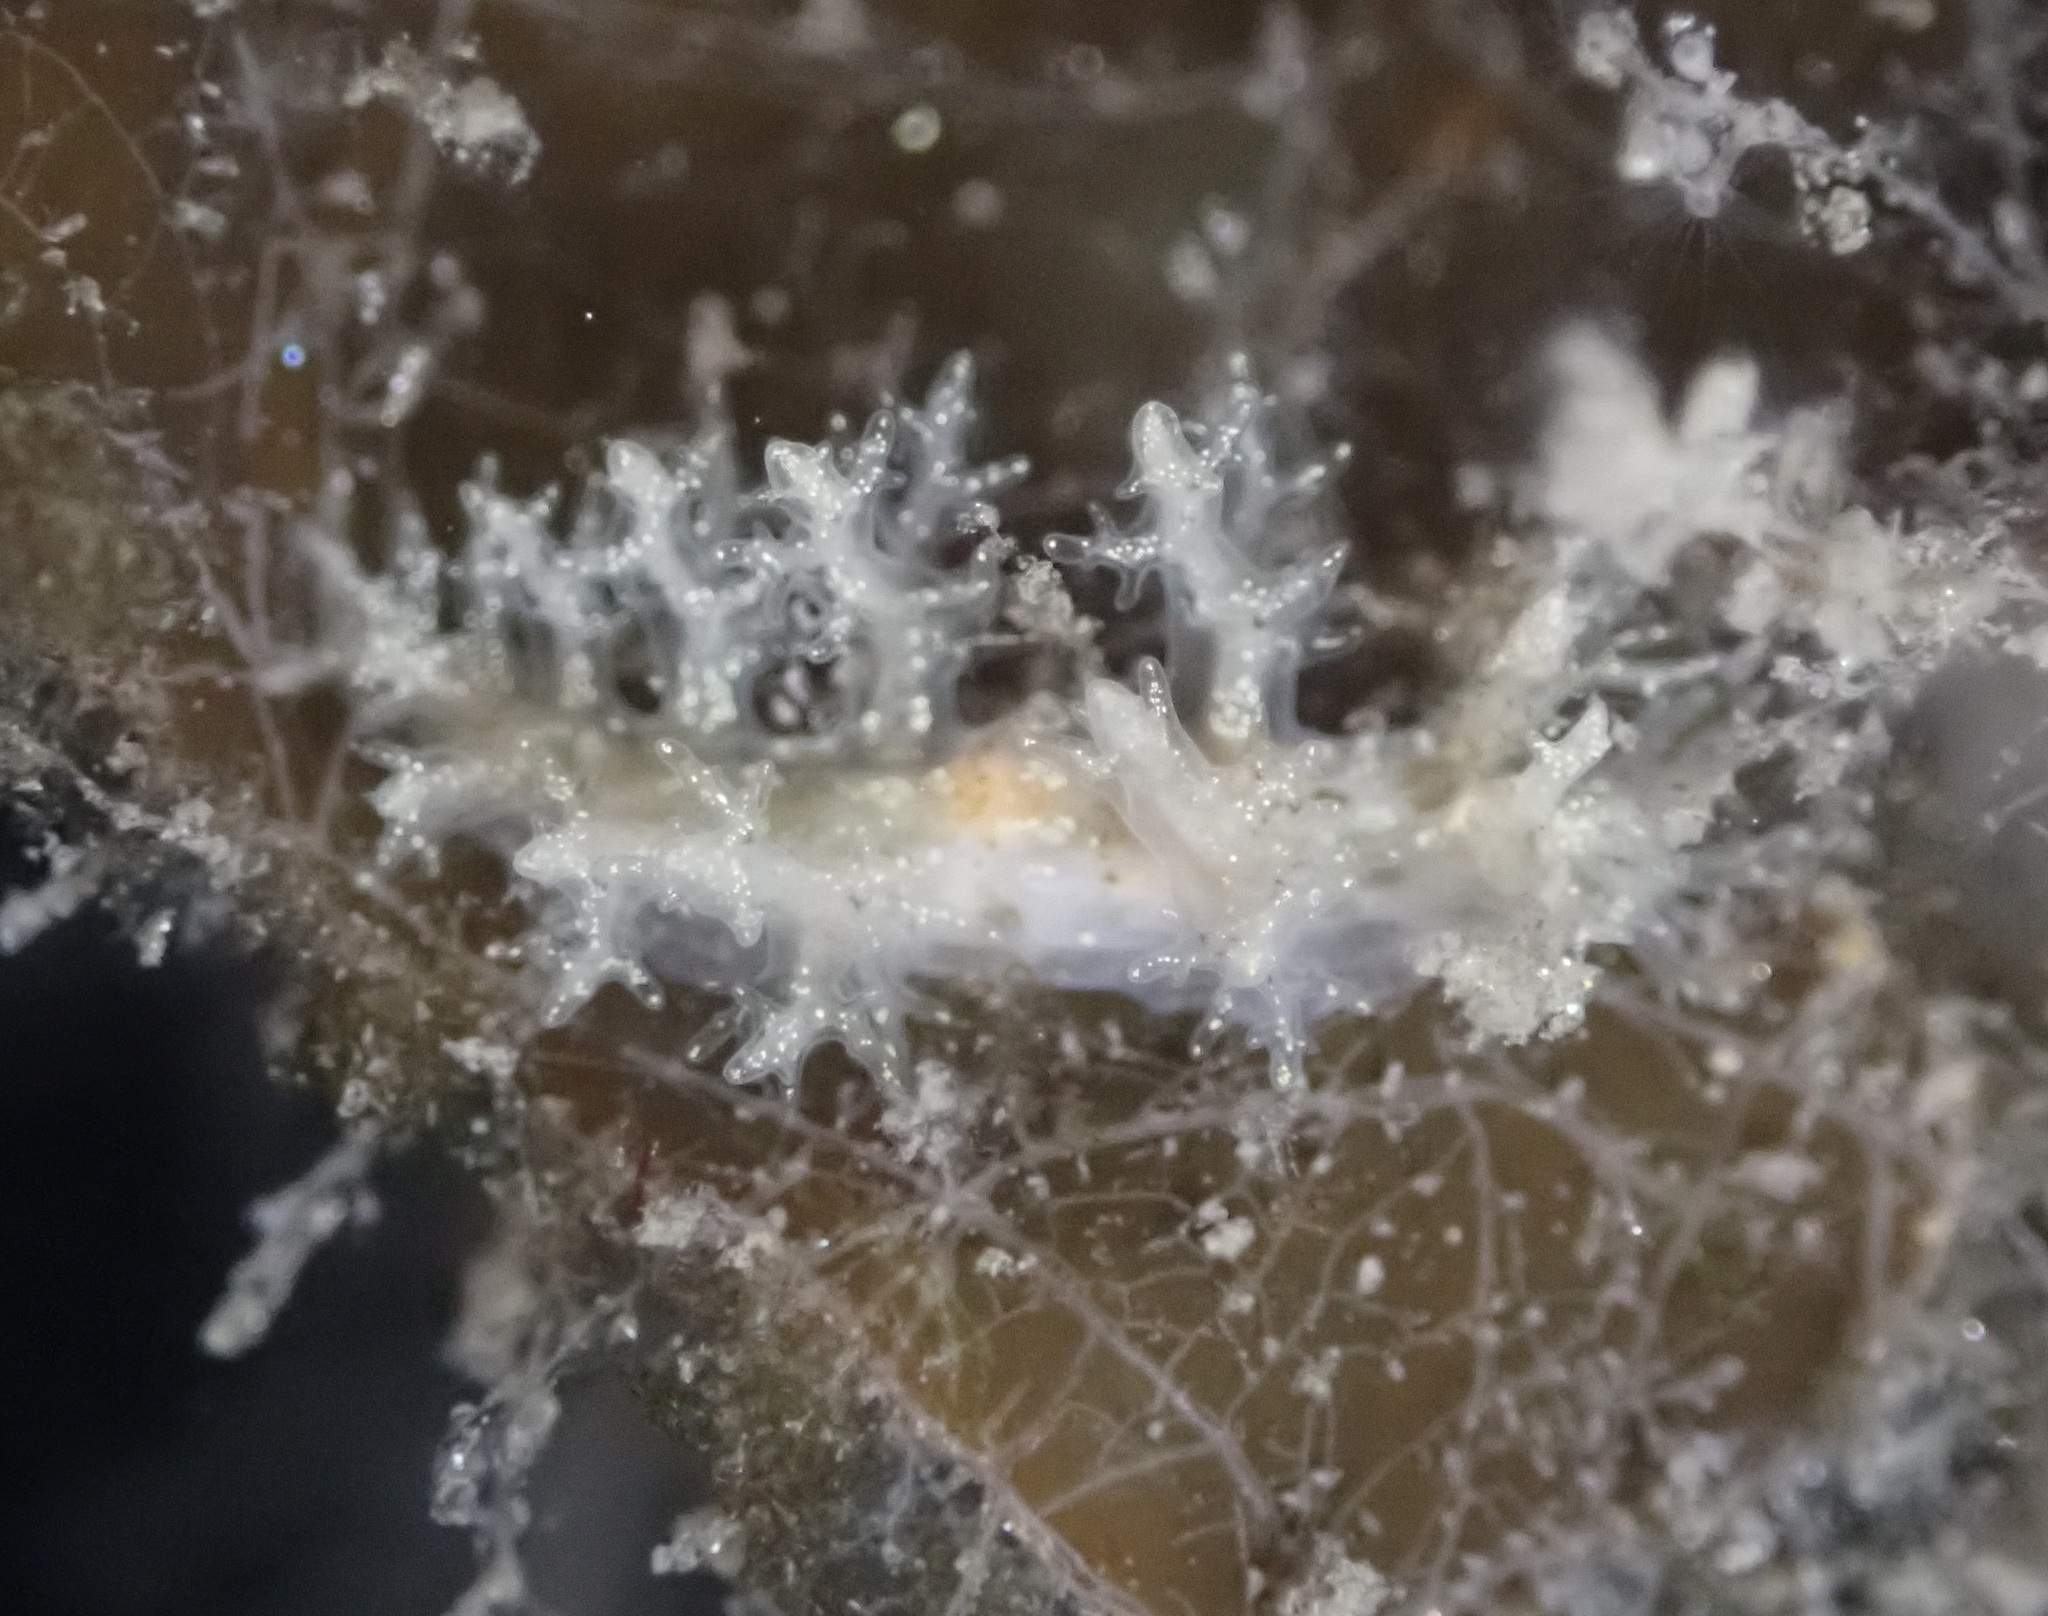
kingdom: Animalia
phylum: Mollusca
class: Gastropoda
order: Nudibranchia
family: Dendronotidae
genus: Dendronotus
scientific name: Dendronotus venustus
